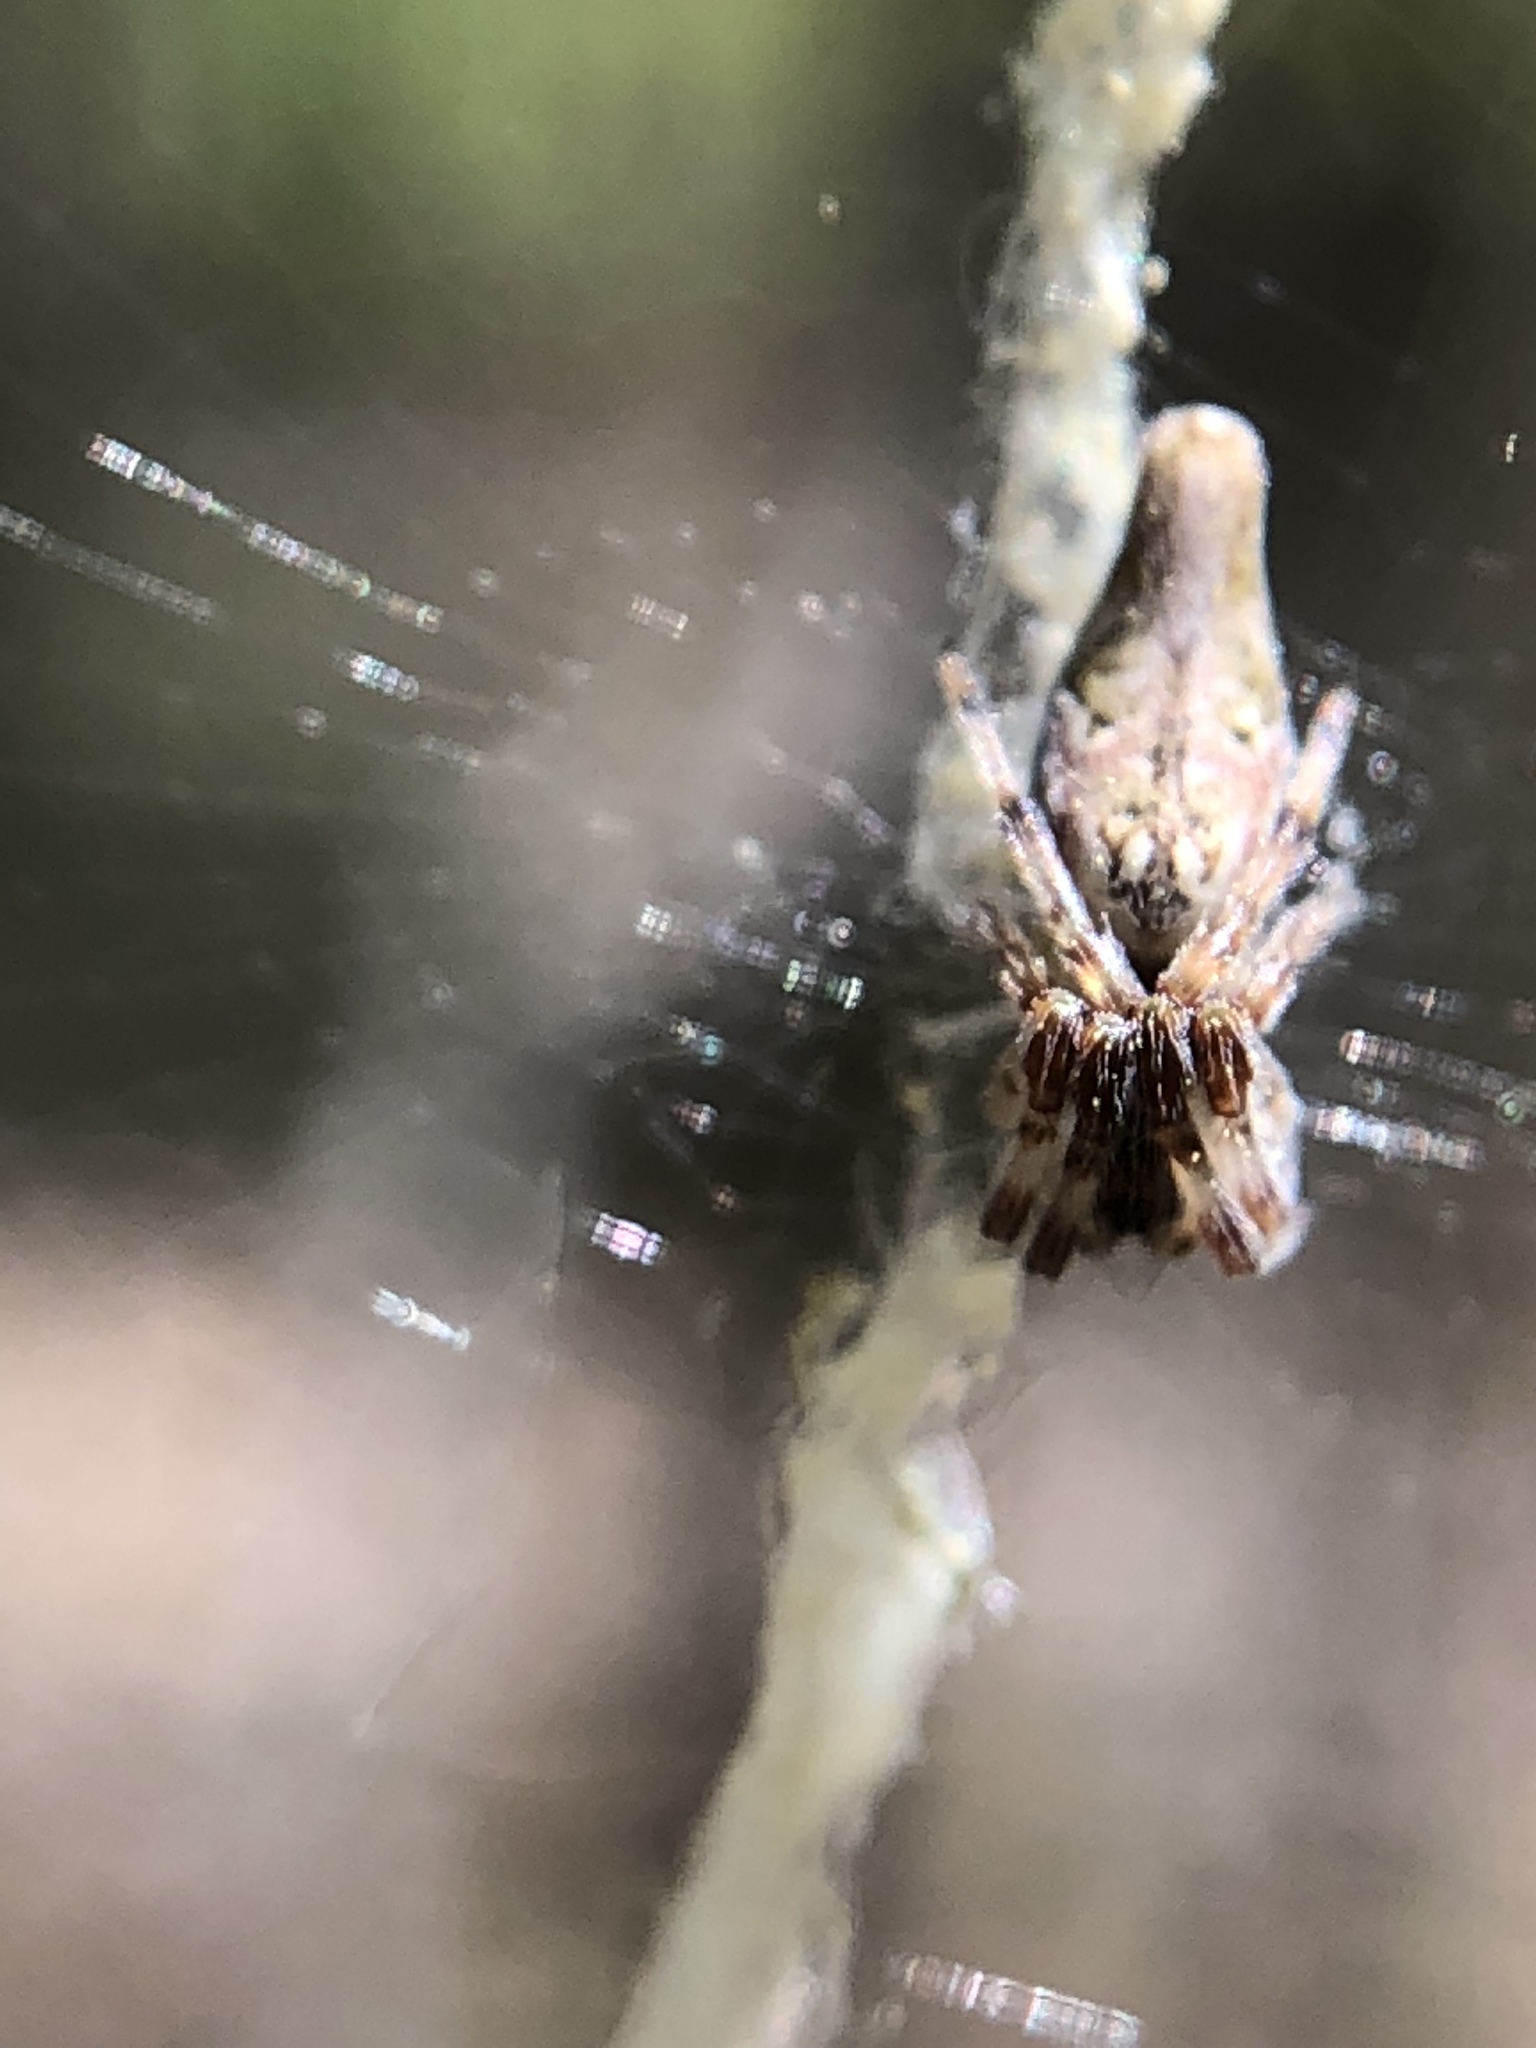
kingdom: Animalia
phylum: Arthropoda
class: Arachnida
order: Araneae
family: Araneidae
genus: Cyclosa
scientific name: Cyclosa conica
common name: Conical trashline orbweaver
